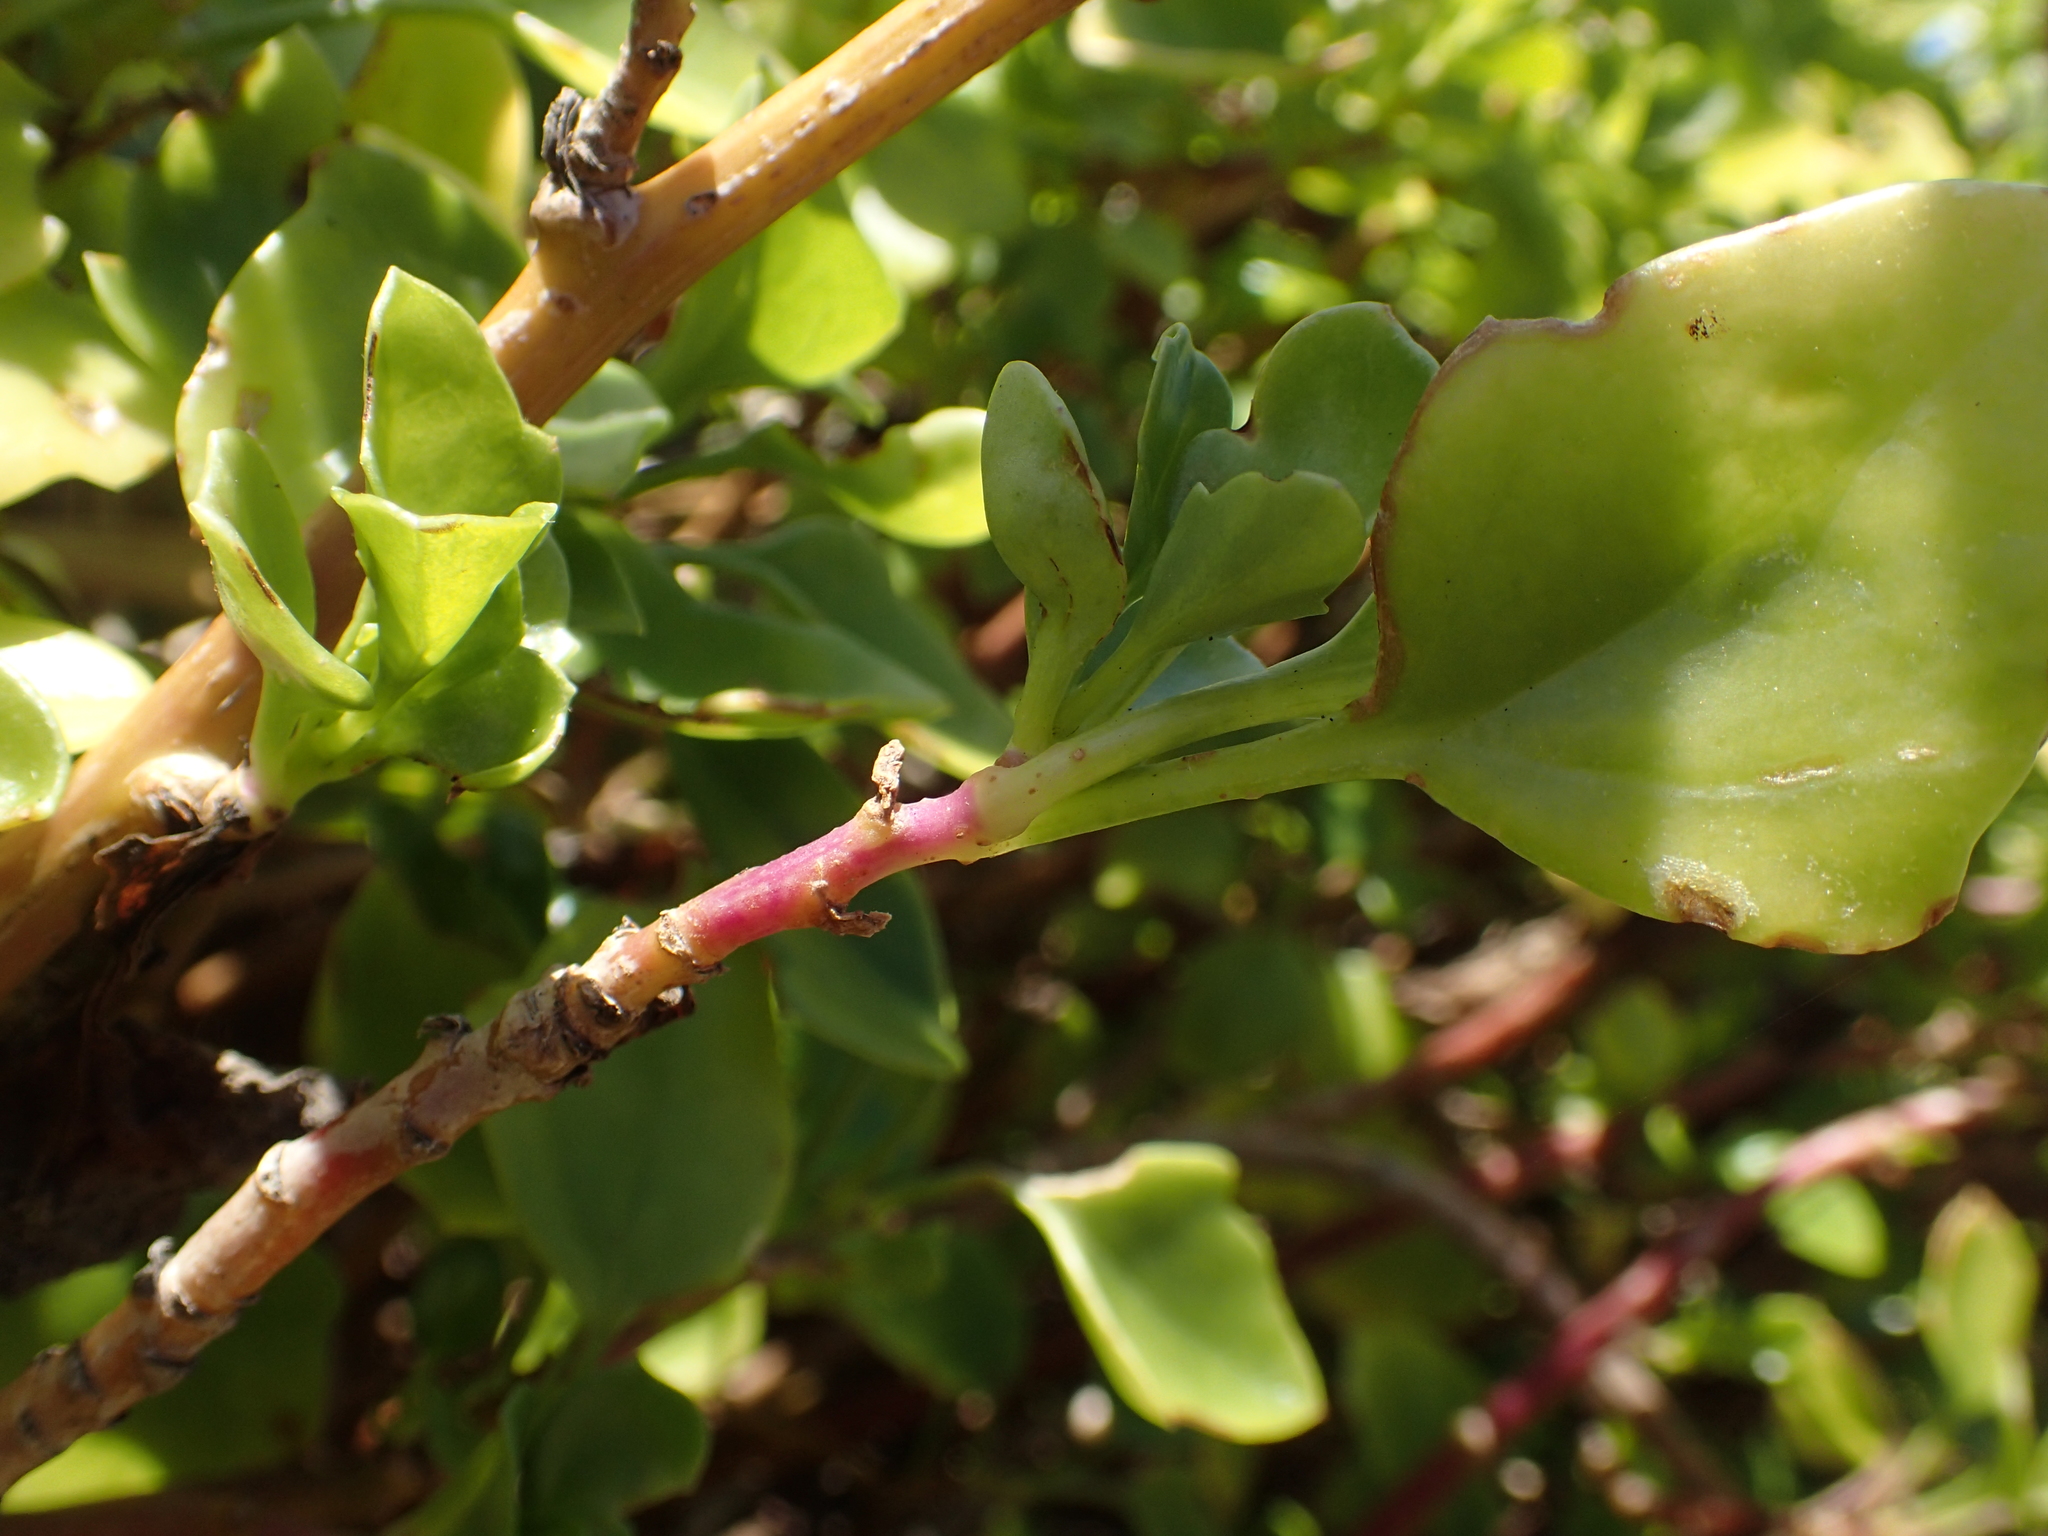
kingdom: Plantae
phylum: Tracheophyta
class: Magnoliopsida
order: Asterales
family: Asteraceae
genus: Senecio
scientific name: Senecio angulatus
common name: Climbing groundsel
